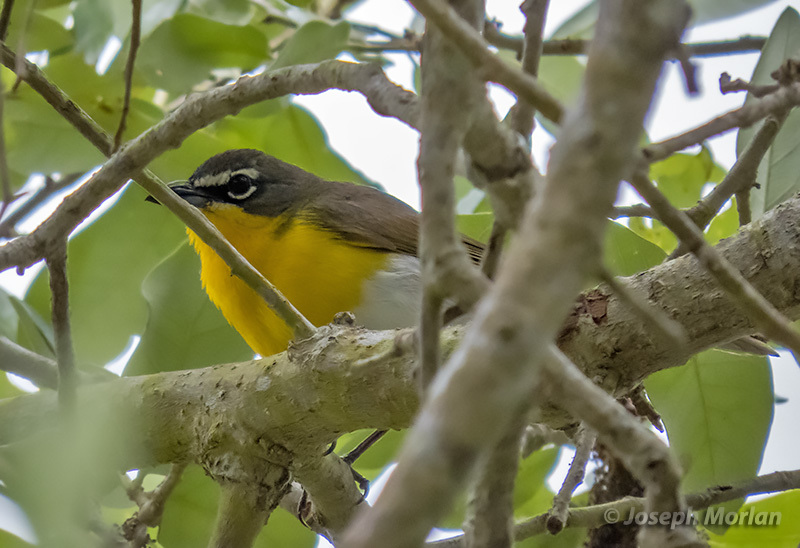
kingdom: Animalia
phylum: Chordata
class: Aves
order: Passeriformes
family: Parulidae
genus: Icteria
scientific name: Icteria virens
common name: Yellow-breasted chat
